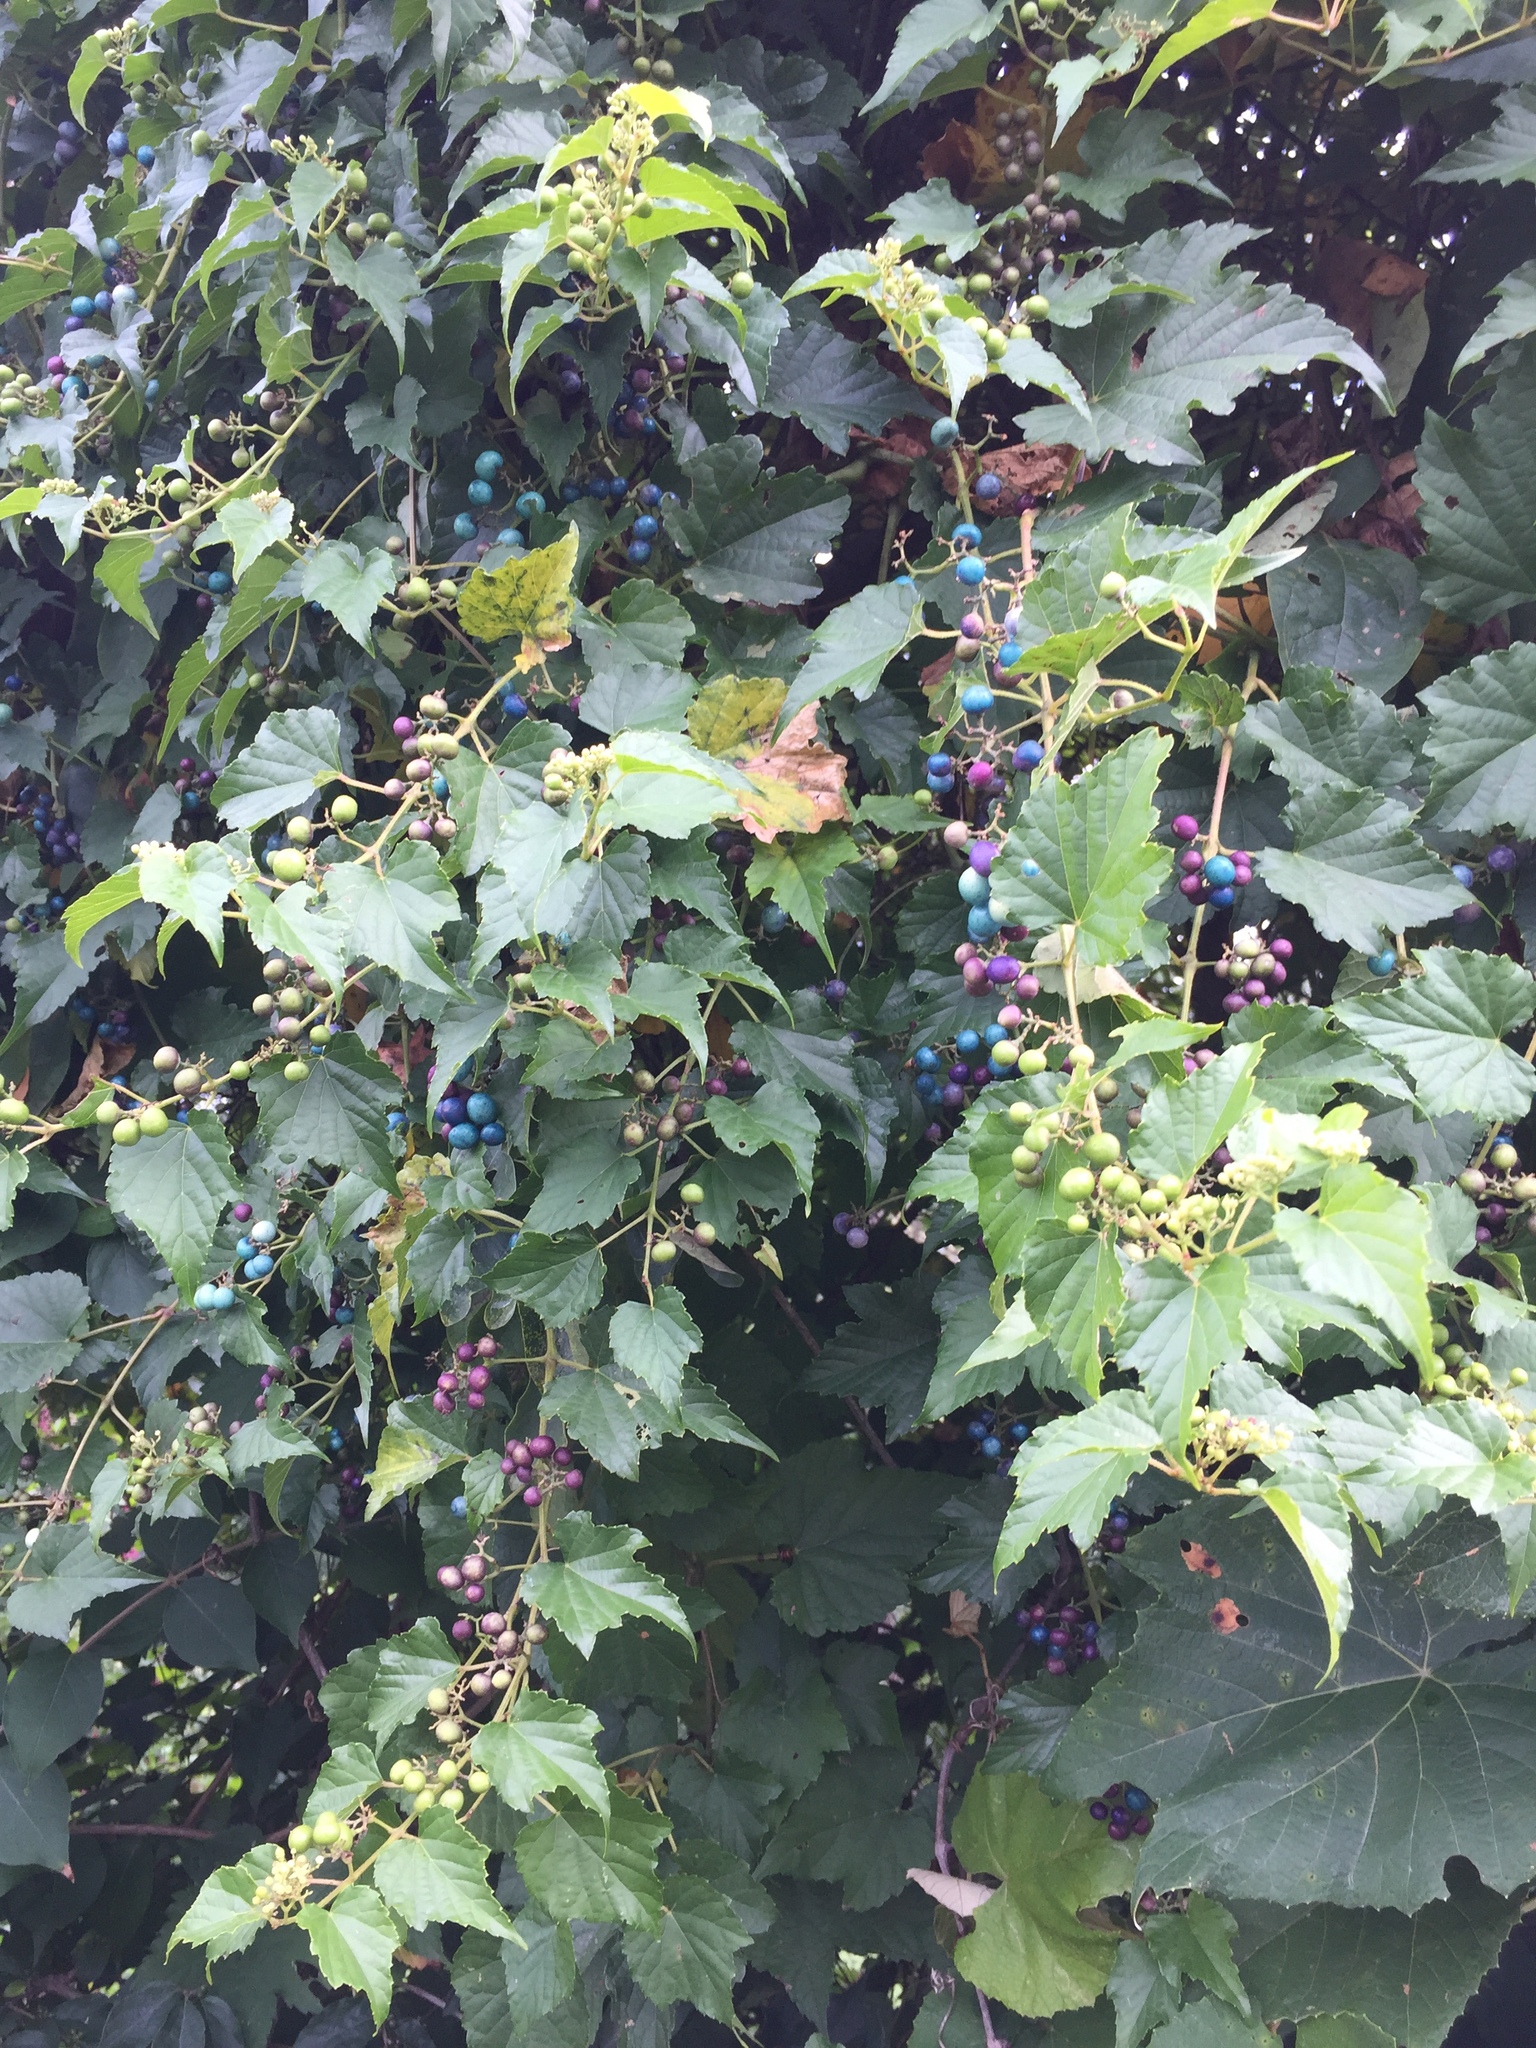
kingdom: Plantae
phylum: Tracheophyta
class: Magnoliopsida
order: Vitales
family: Vitaceae
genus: Ampelopsis
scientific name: Ampelopsis glandulosa
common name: Amur peppervine
